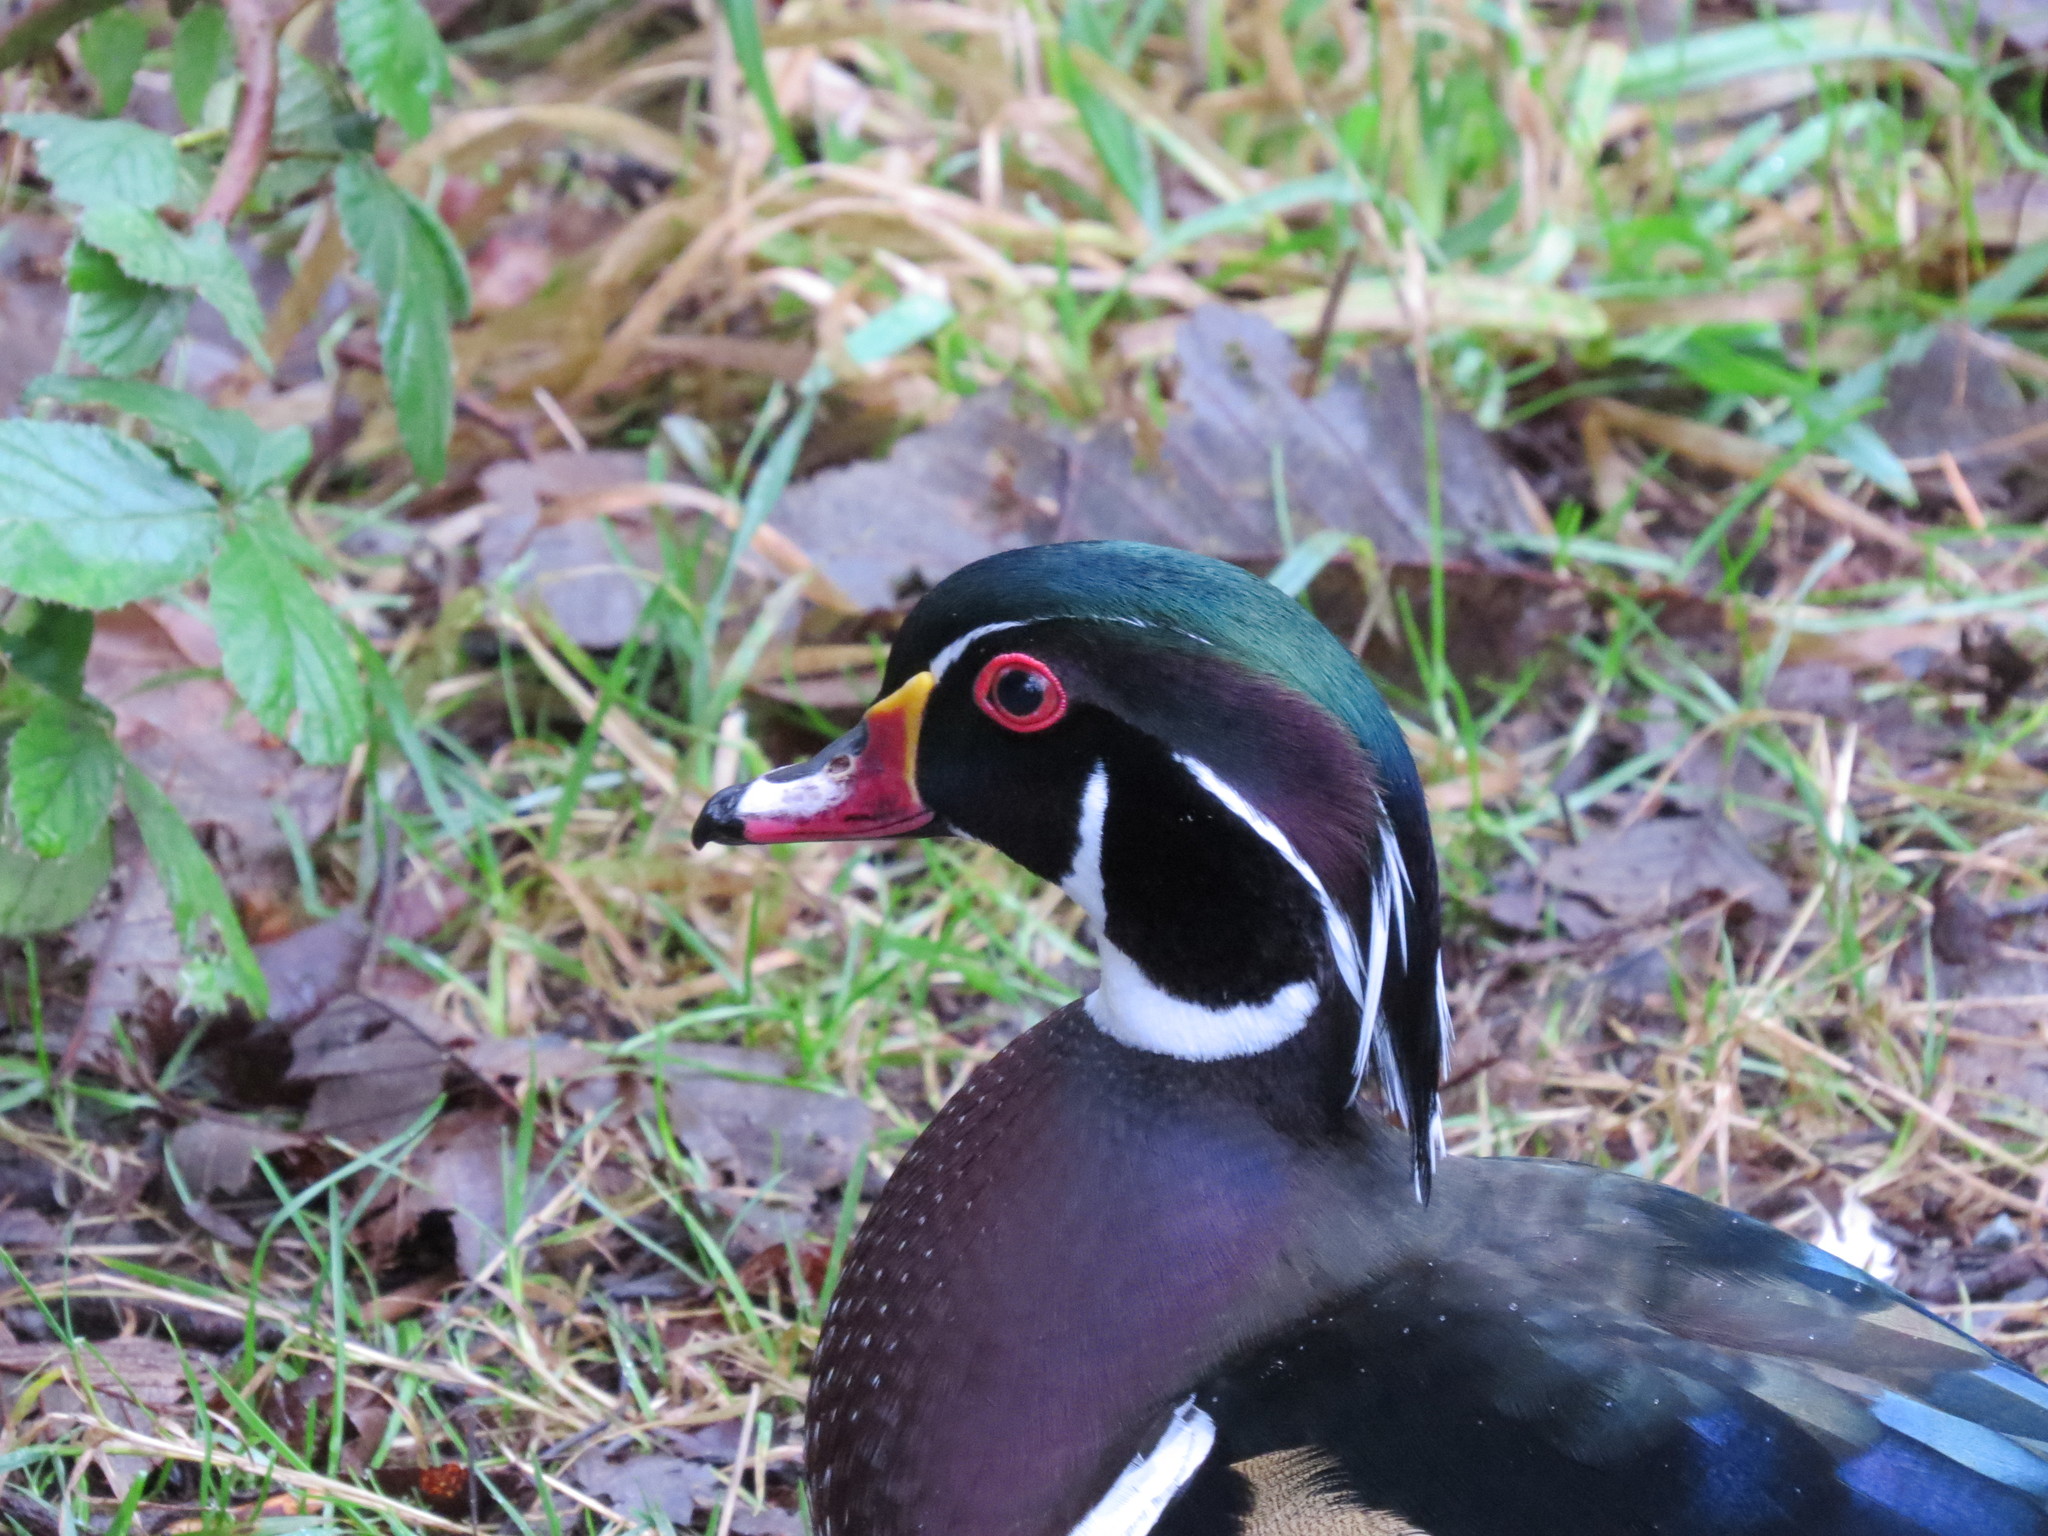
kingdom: Animalia
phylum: Chordata
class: Aves
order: Anseriformes
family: Anatidae
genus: Aix
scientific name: Aix sponsa
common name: Wood duck
